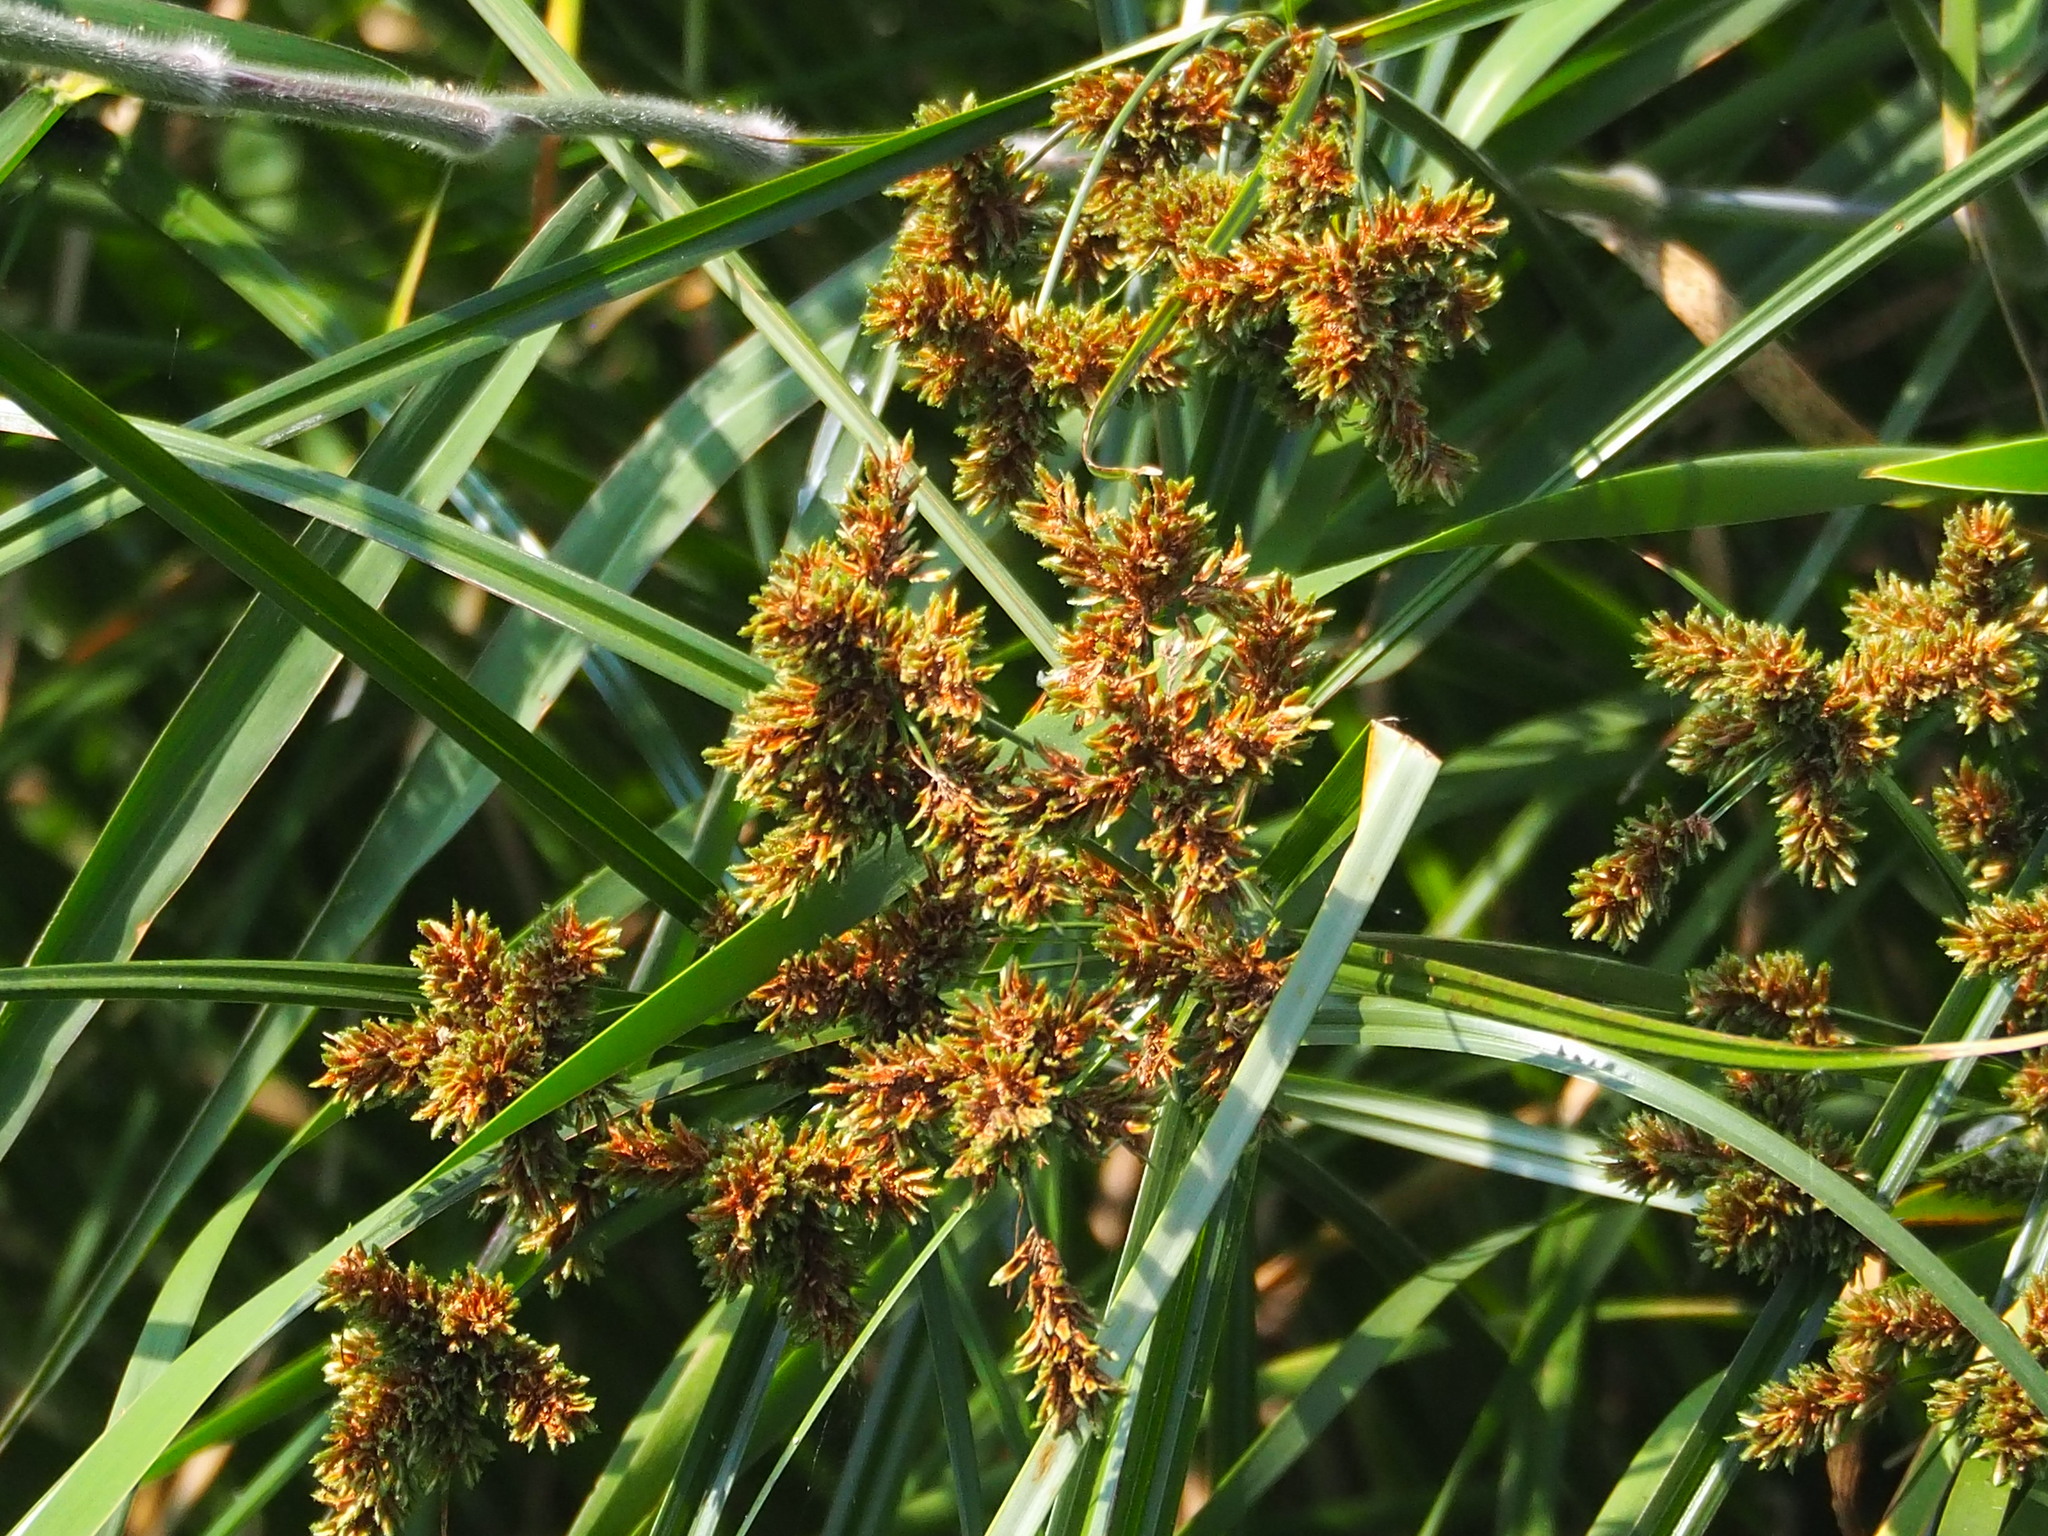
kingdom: Plantae
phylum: Tracheophyta
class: Liliopsida
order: Poales
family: Cyperaceae
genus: Cyperus
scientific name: Cyperus imbricatus
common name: Shingle flatsedge
